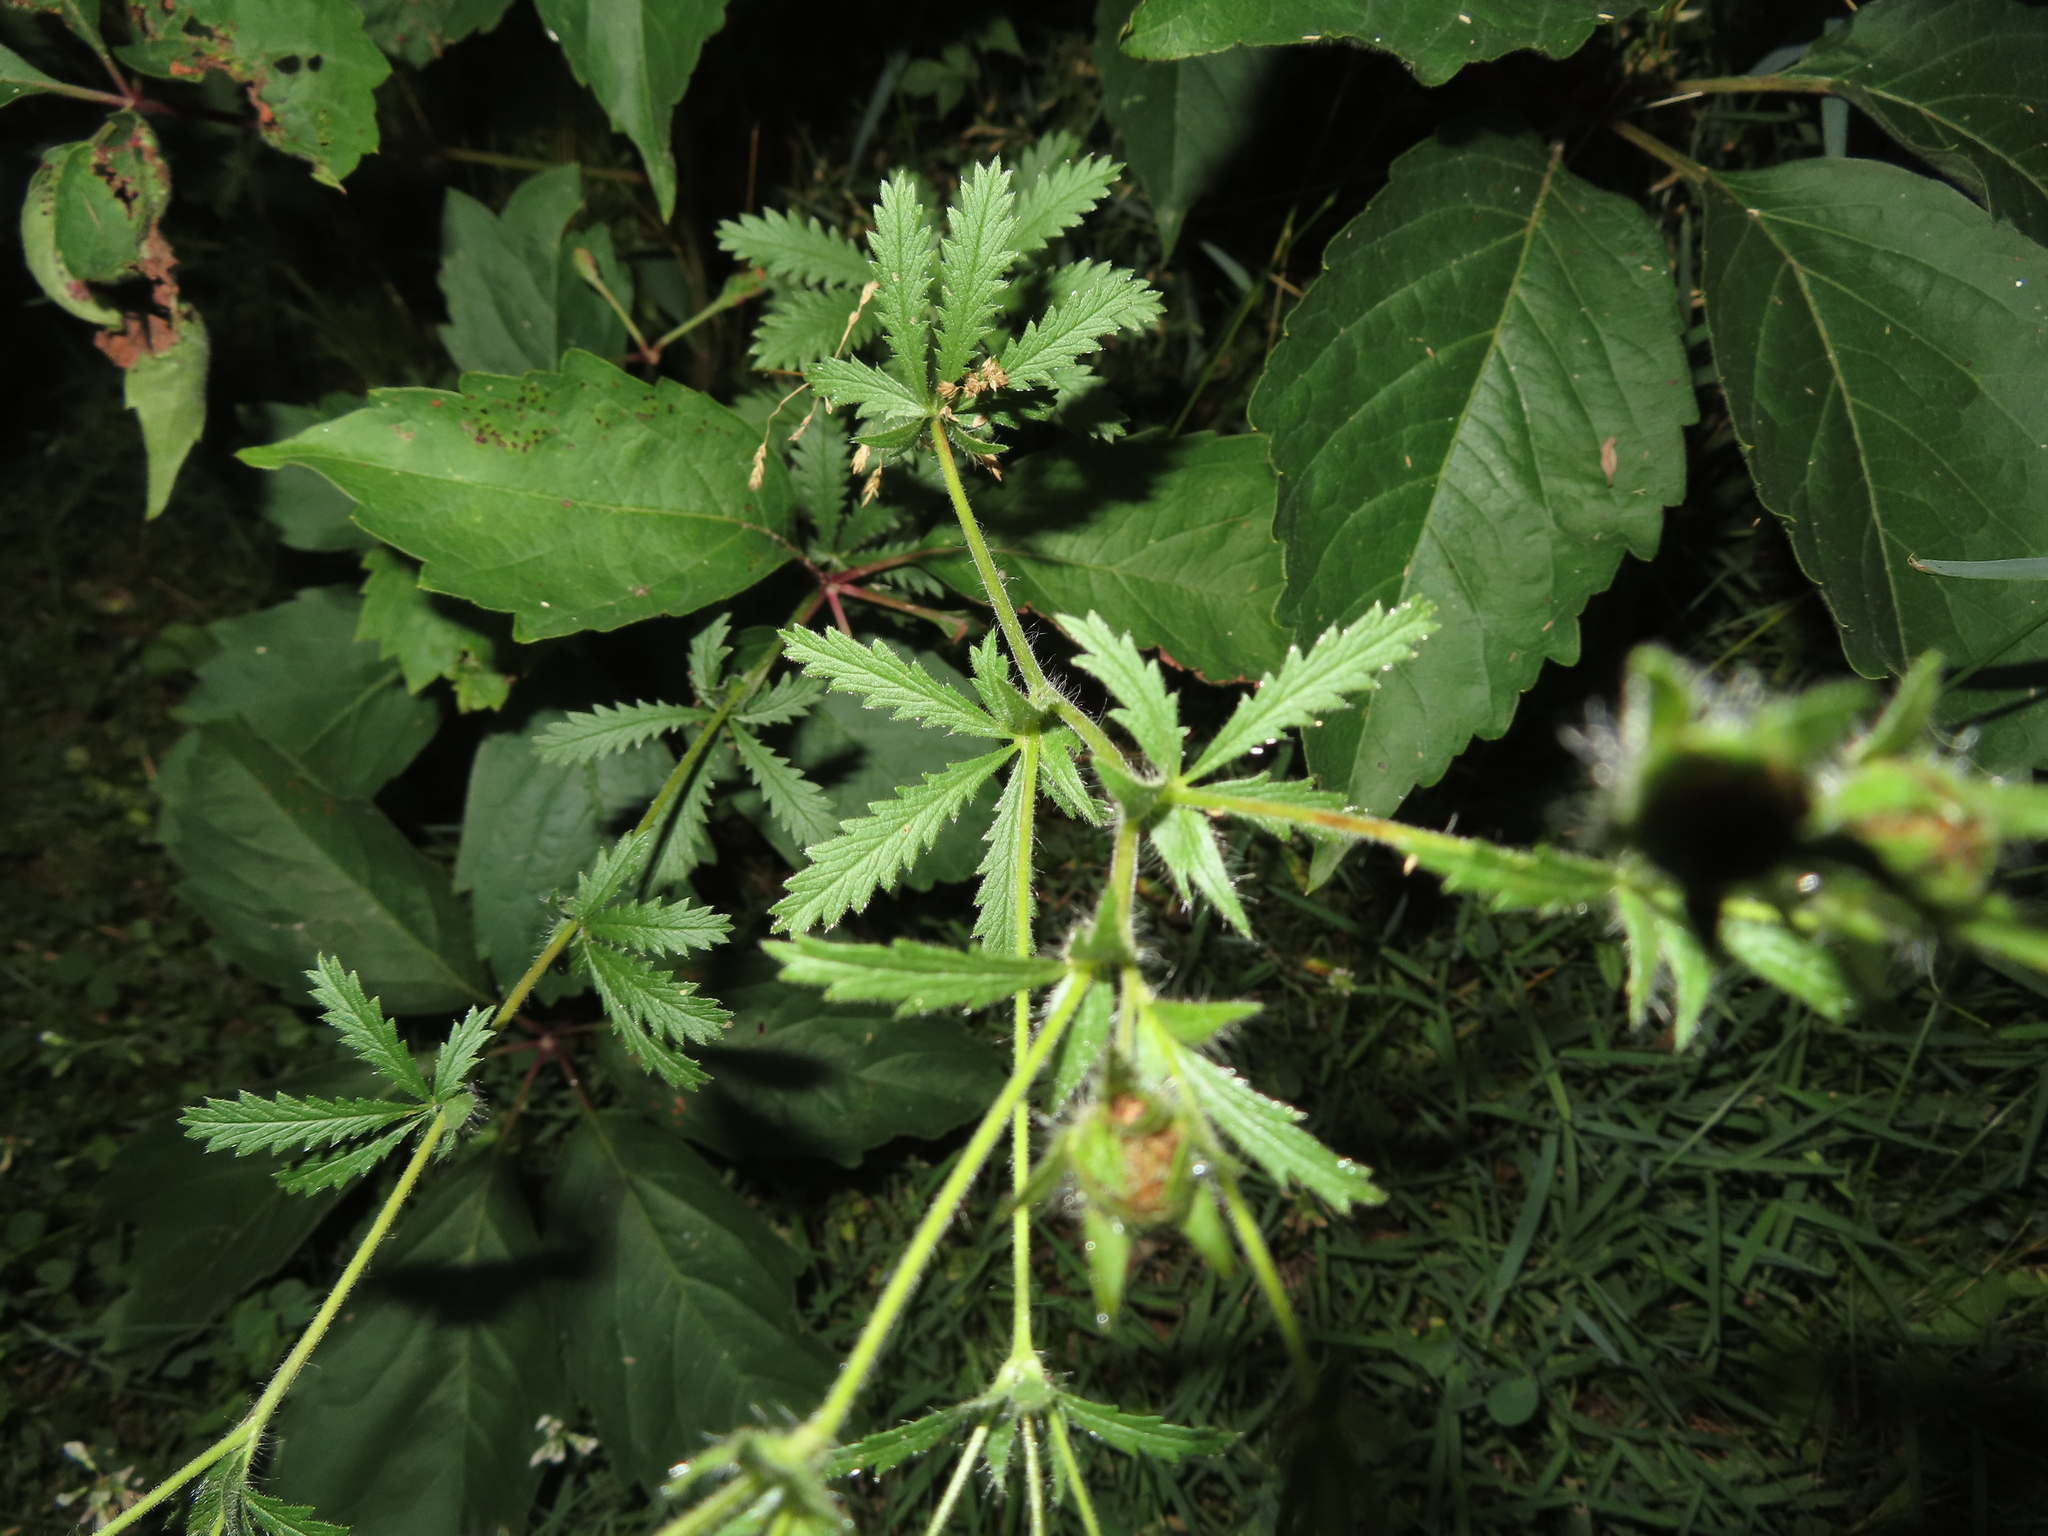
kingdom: Plantae
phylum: Tracheophyta
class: Magnoliopsida
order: Rosales
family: Rosaceae
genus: Potentilla
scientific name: Potentilla recta
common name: Sulphur cinquefoil
